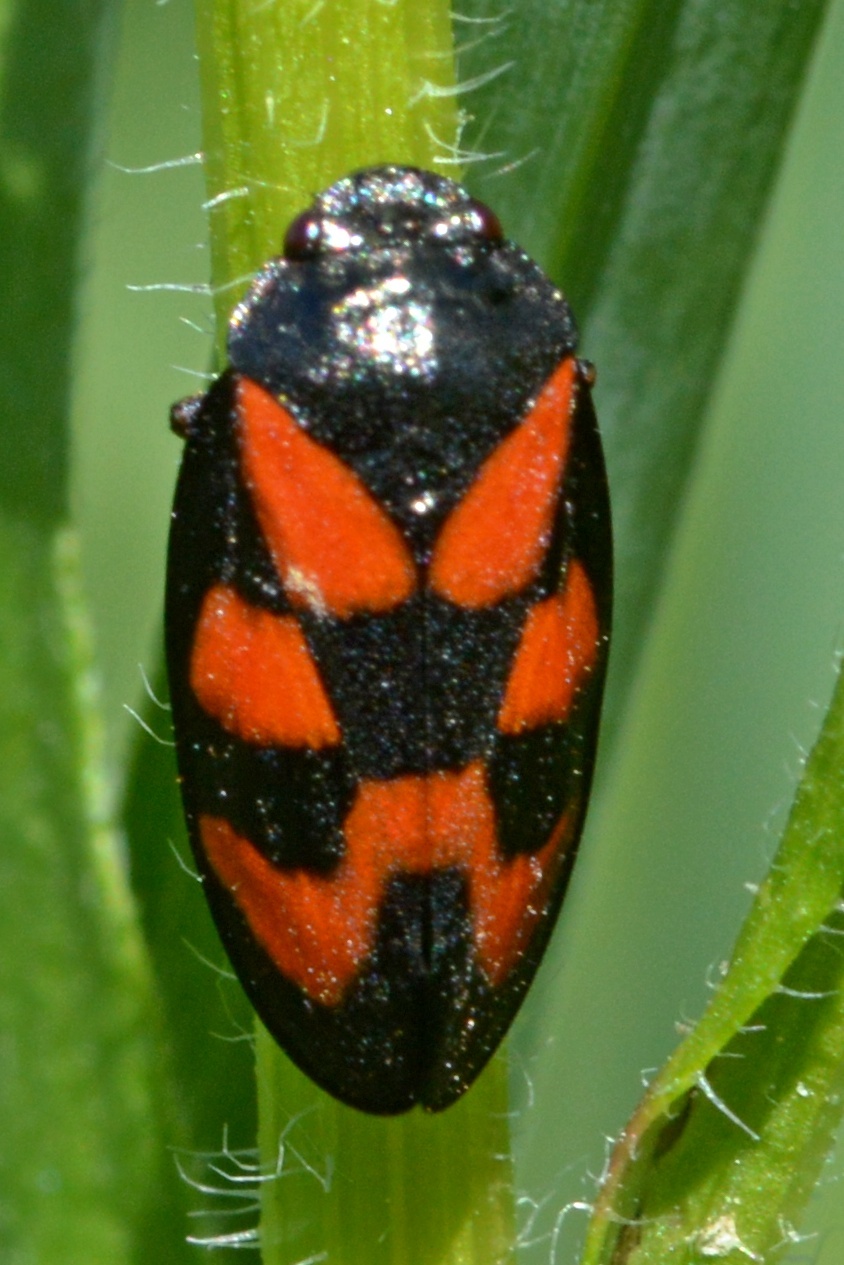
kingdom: Animalia
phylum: Arthropoda
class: Insecta
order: Hemiptera
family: Cercopidae
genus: Cercopis
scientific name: Cercopis vulnerata
